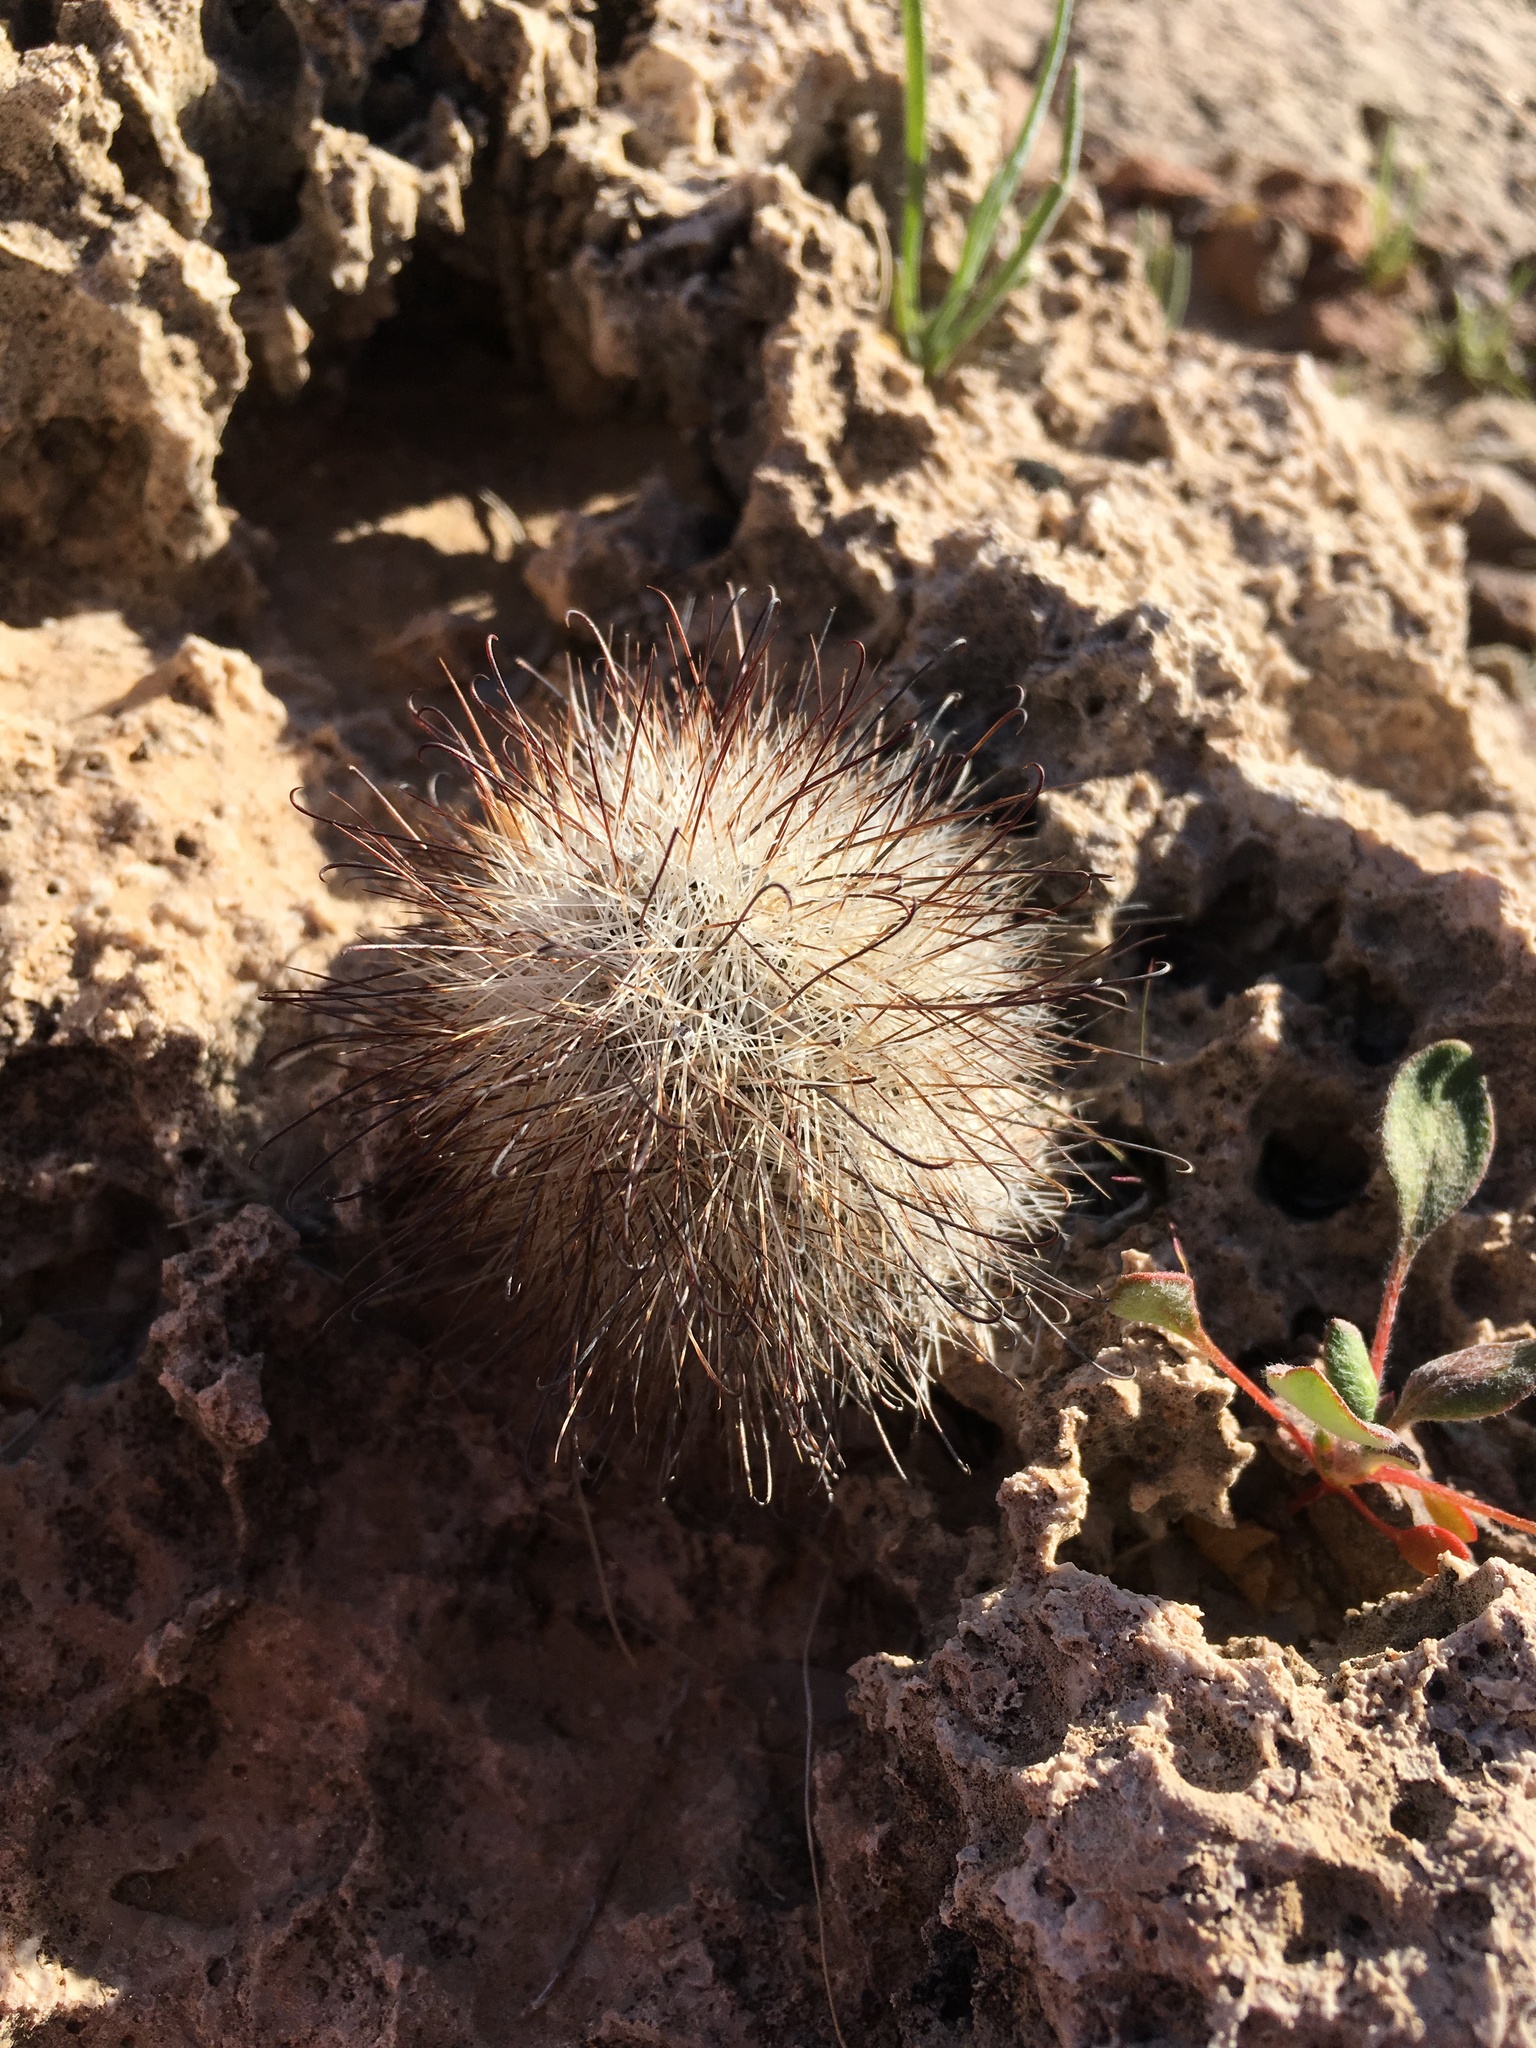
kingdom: Plantae
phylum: Tracheophyta
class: Magnoliopsida
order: Caryophyllales
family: Cactaceae
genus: Cochemiea
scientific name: Cochemiea tetrancistra
